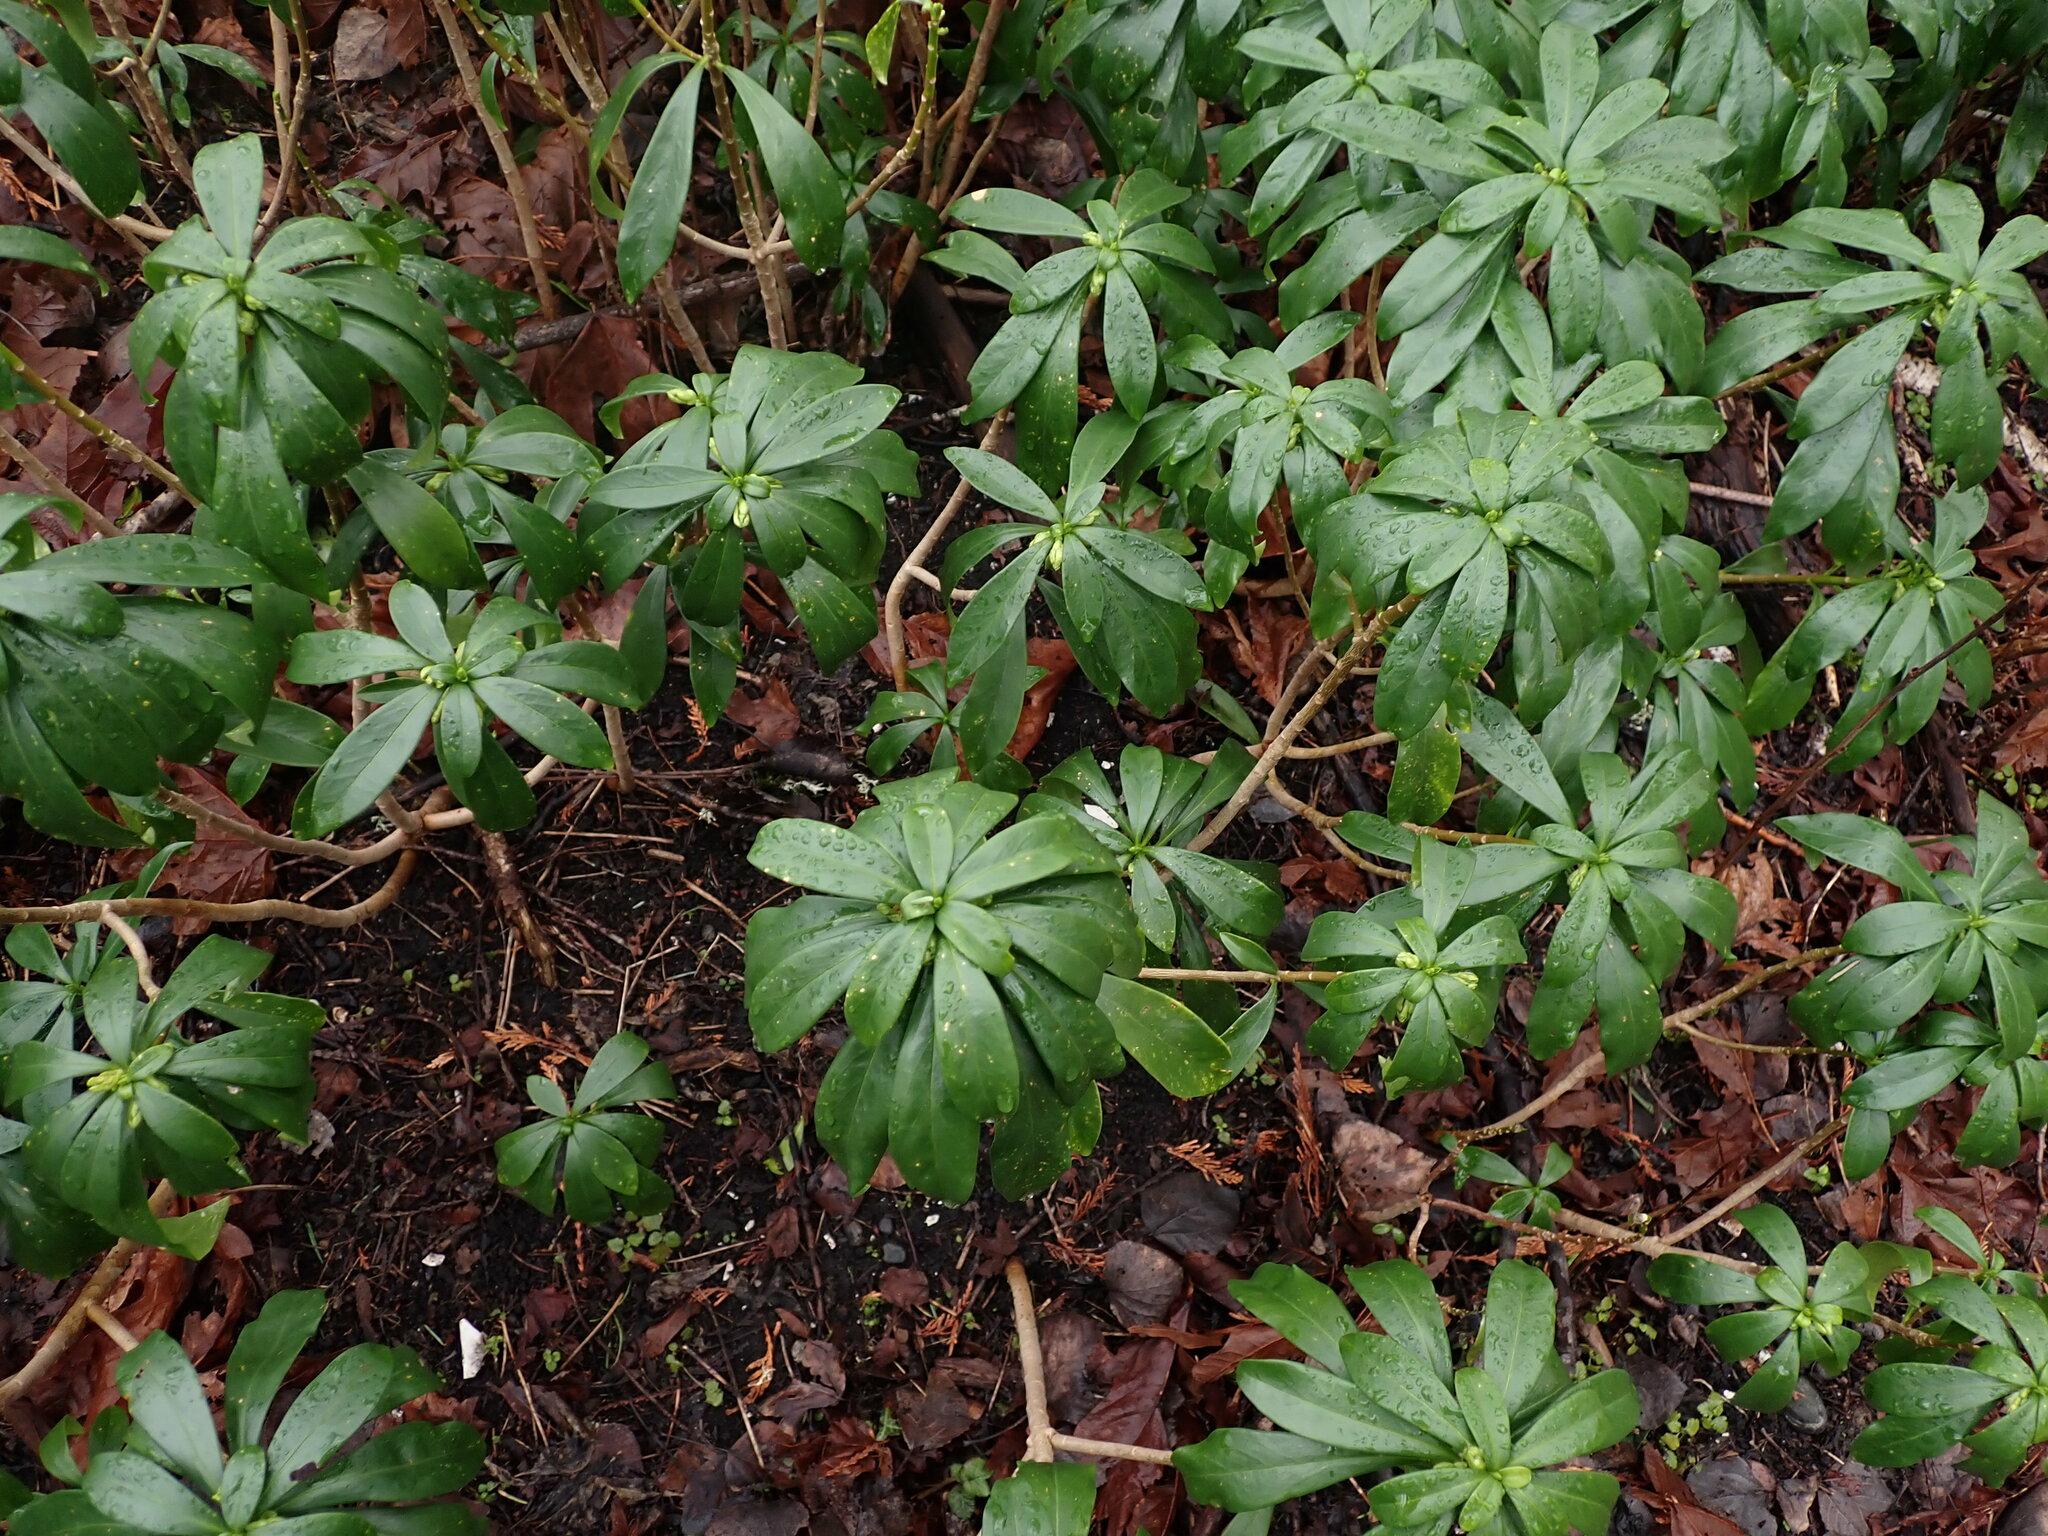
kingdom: Plantae
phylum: Tracheophyta
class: Magnoliopsida
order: Malvales
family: Thymelaeaceae
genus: Daphne
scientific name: Daphne laureola
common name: Spurge-laurel
